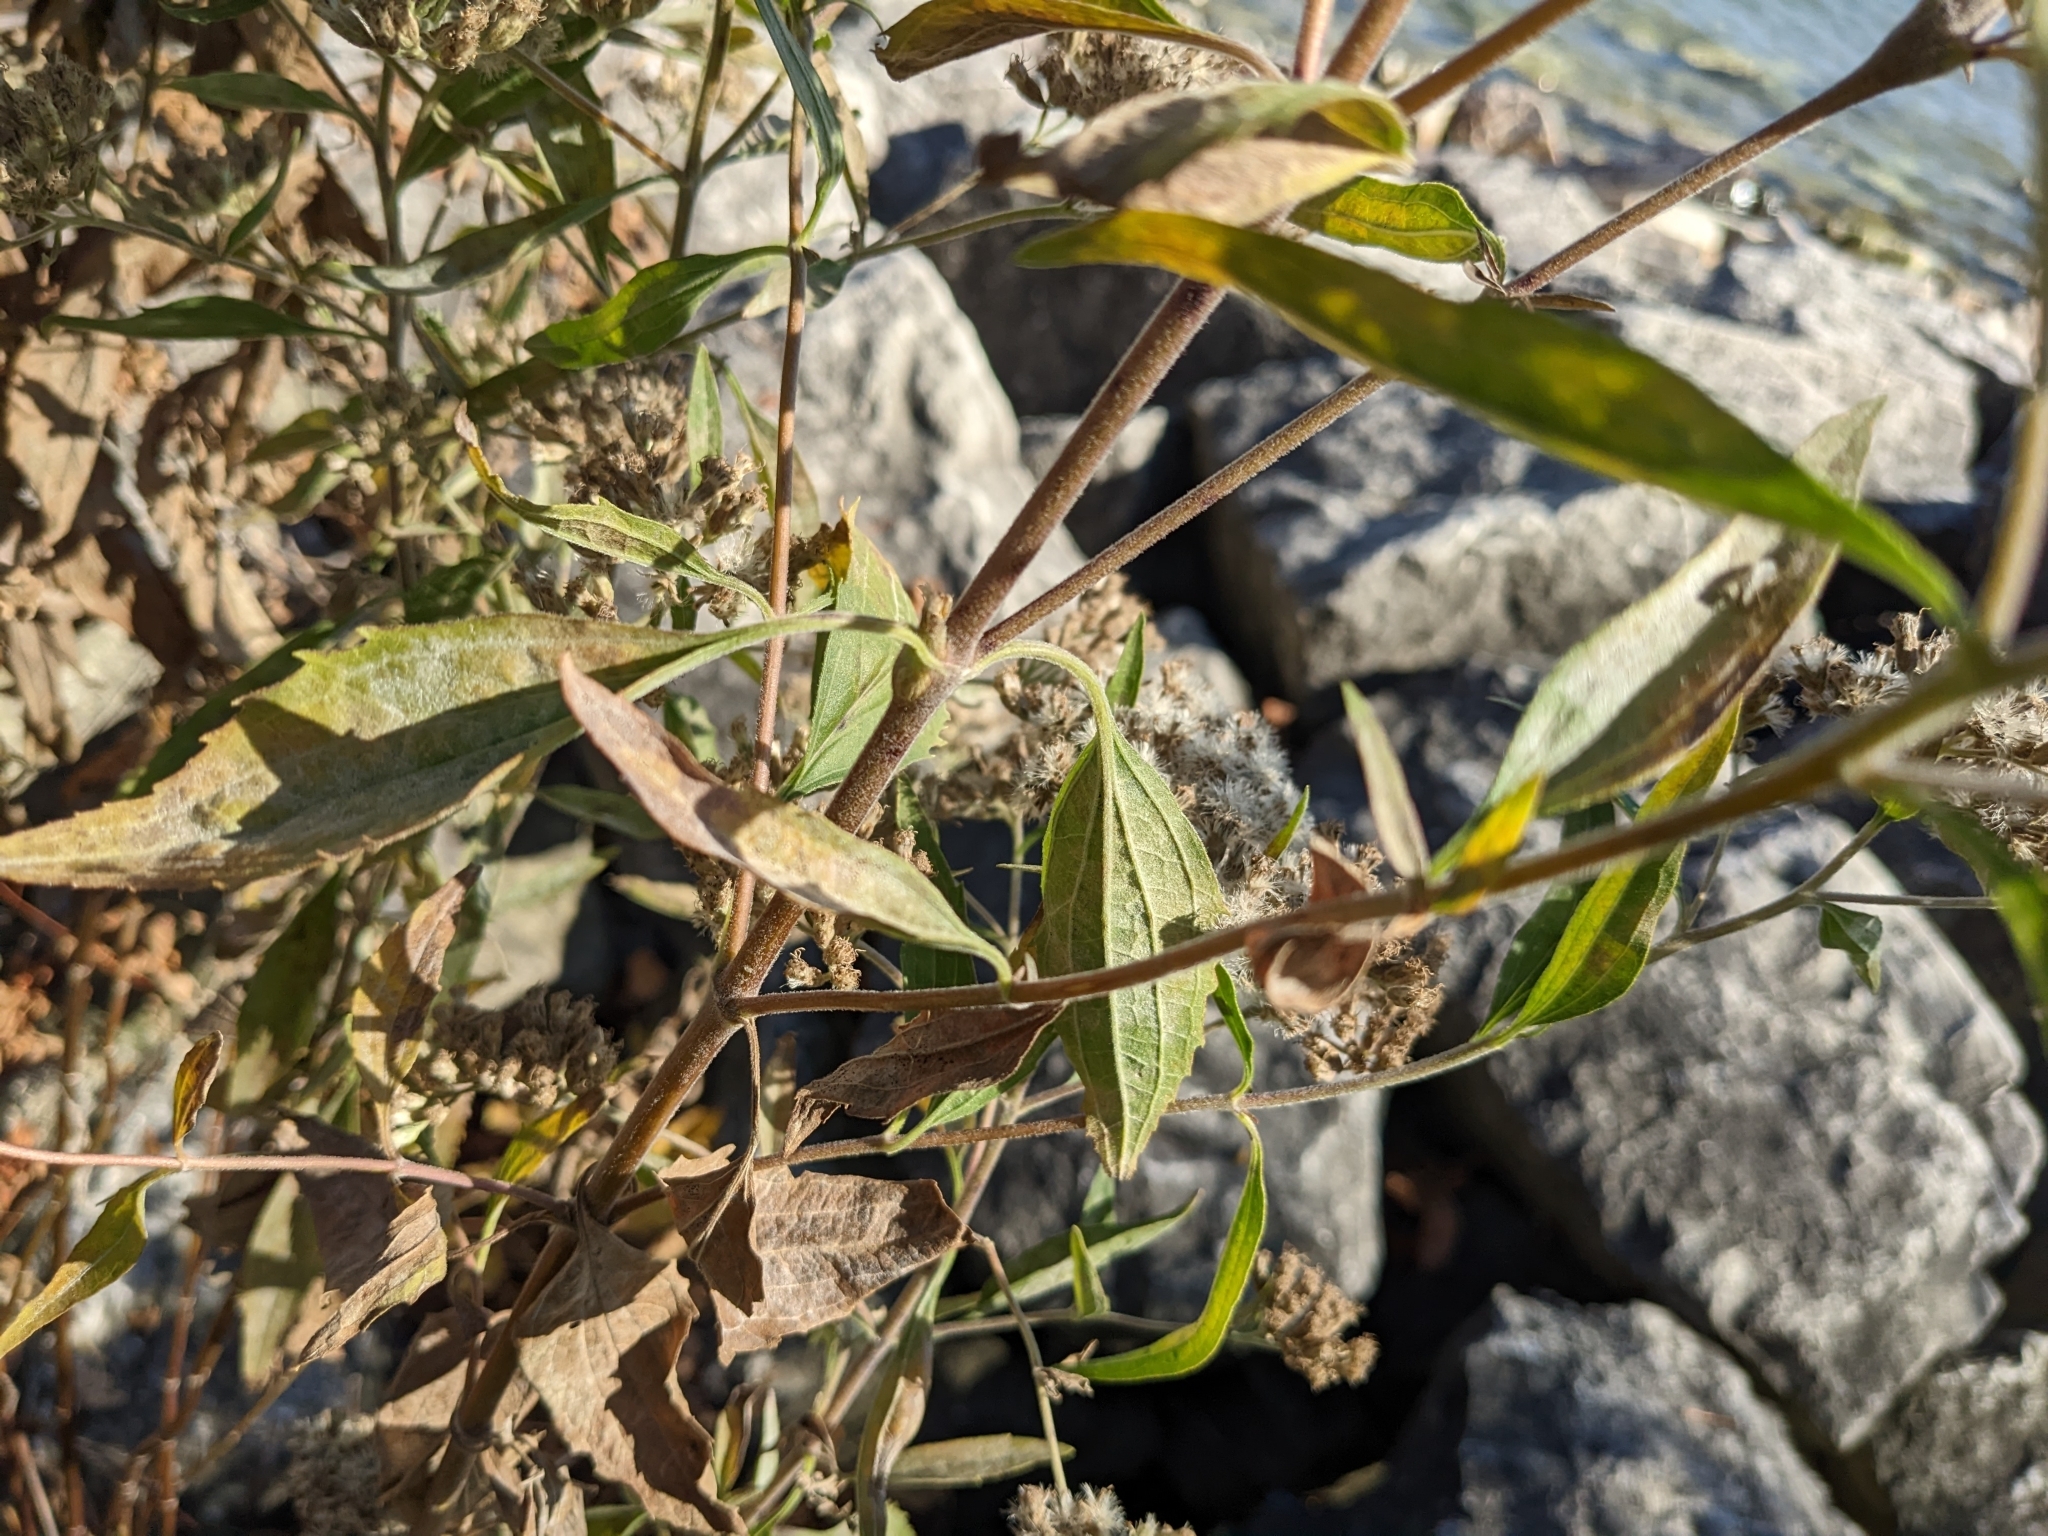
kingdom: Plantae
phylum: Tracheophyta
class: Magnoliopsida
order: Asterales
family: Asteraceae
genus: Eupatorium
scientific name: Eupatorium serotinum
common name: Late boneset
